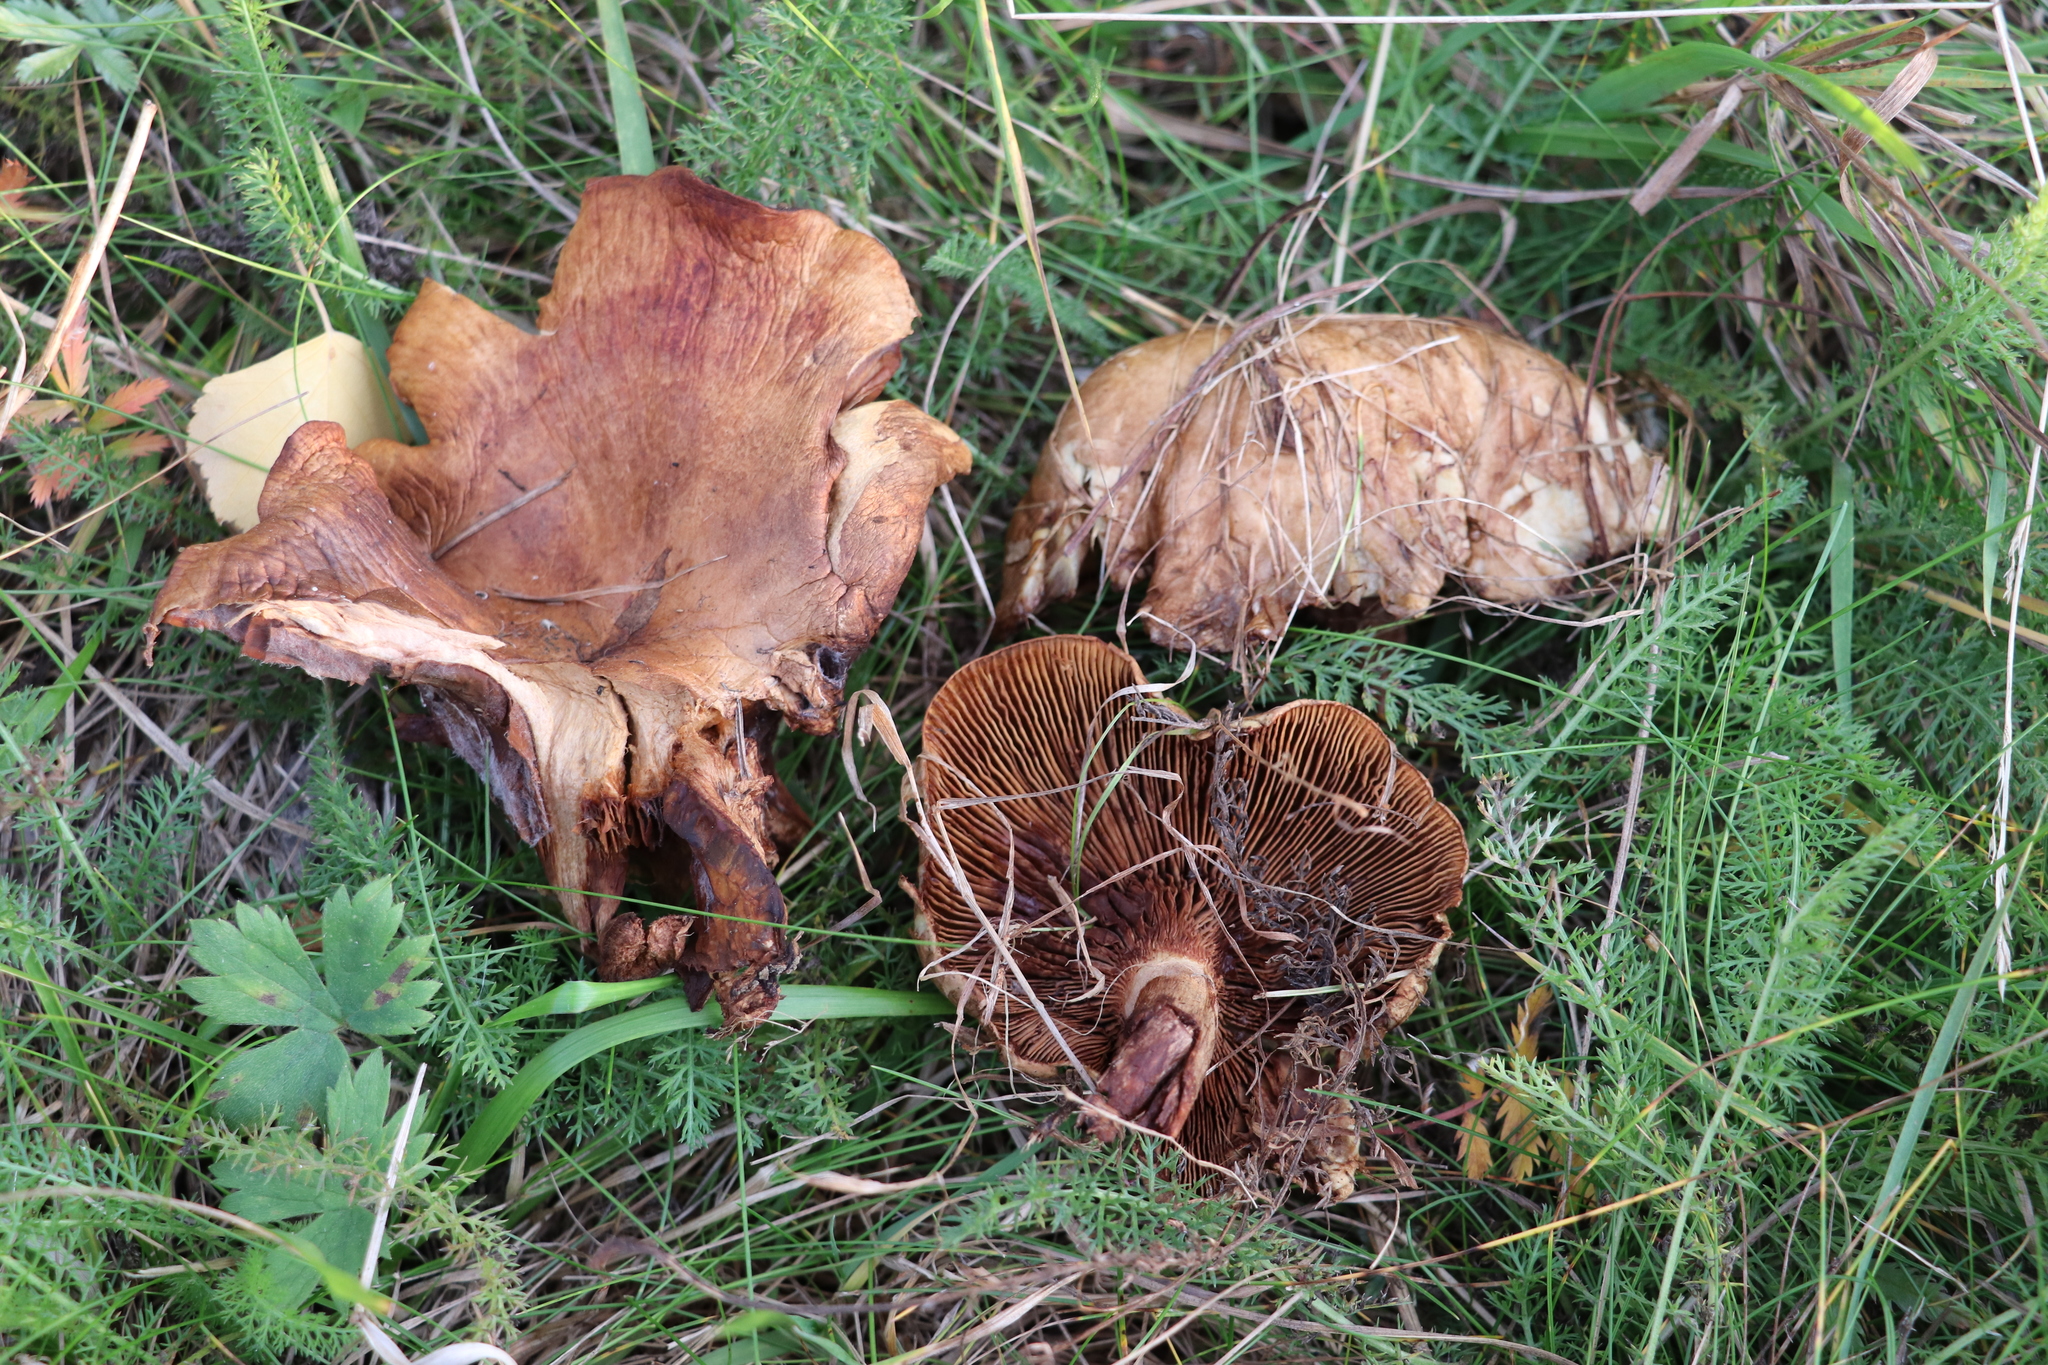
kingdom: Fungi
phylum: Basidiomycota
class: Agaricomycetes
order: Boletales
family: Paxillaceae
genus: Paxillus
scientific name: Paxillus involutus
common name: Brown roll rim
